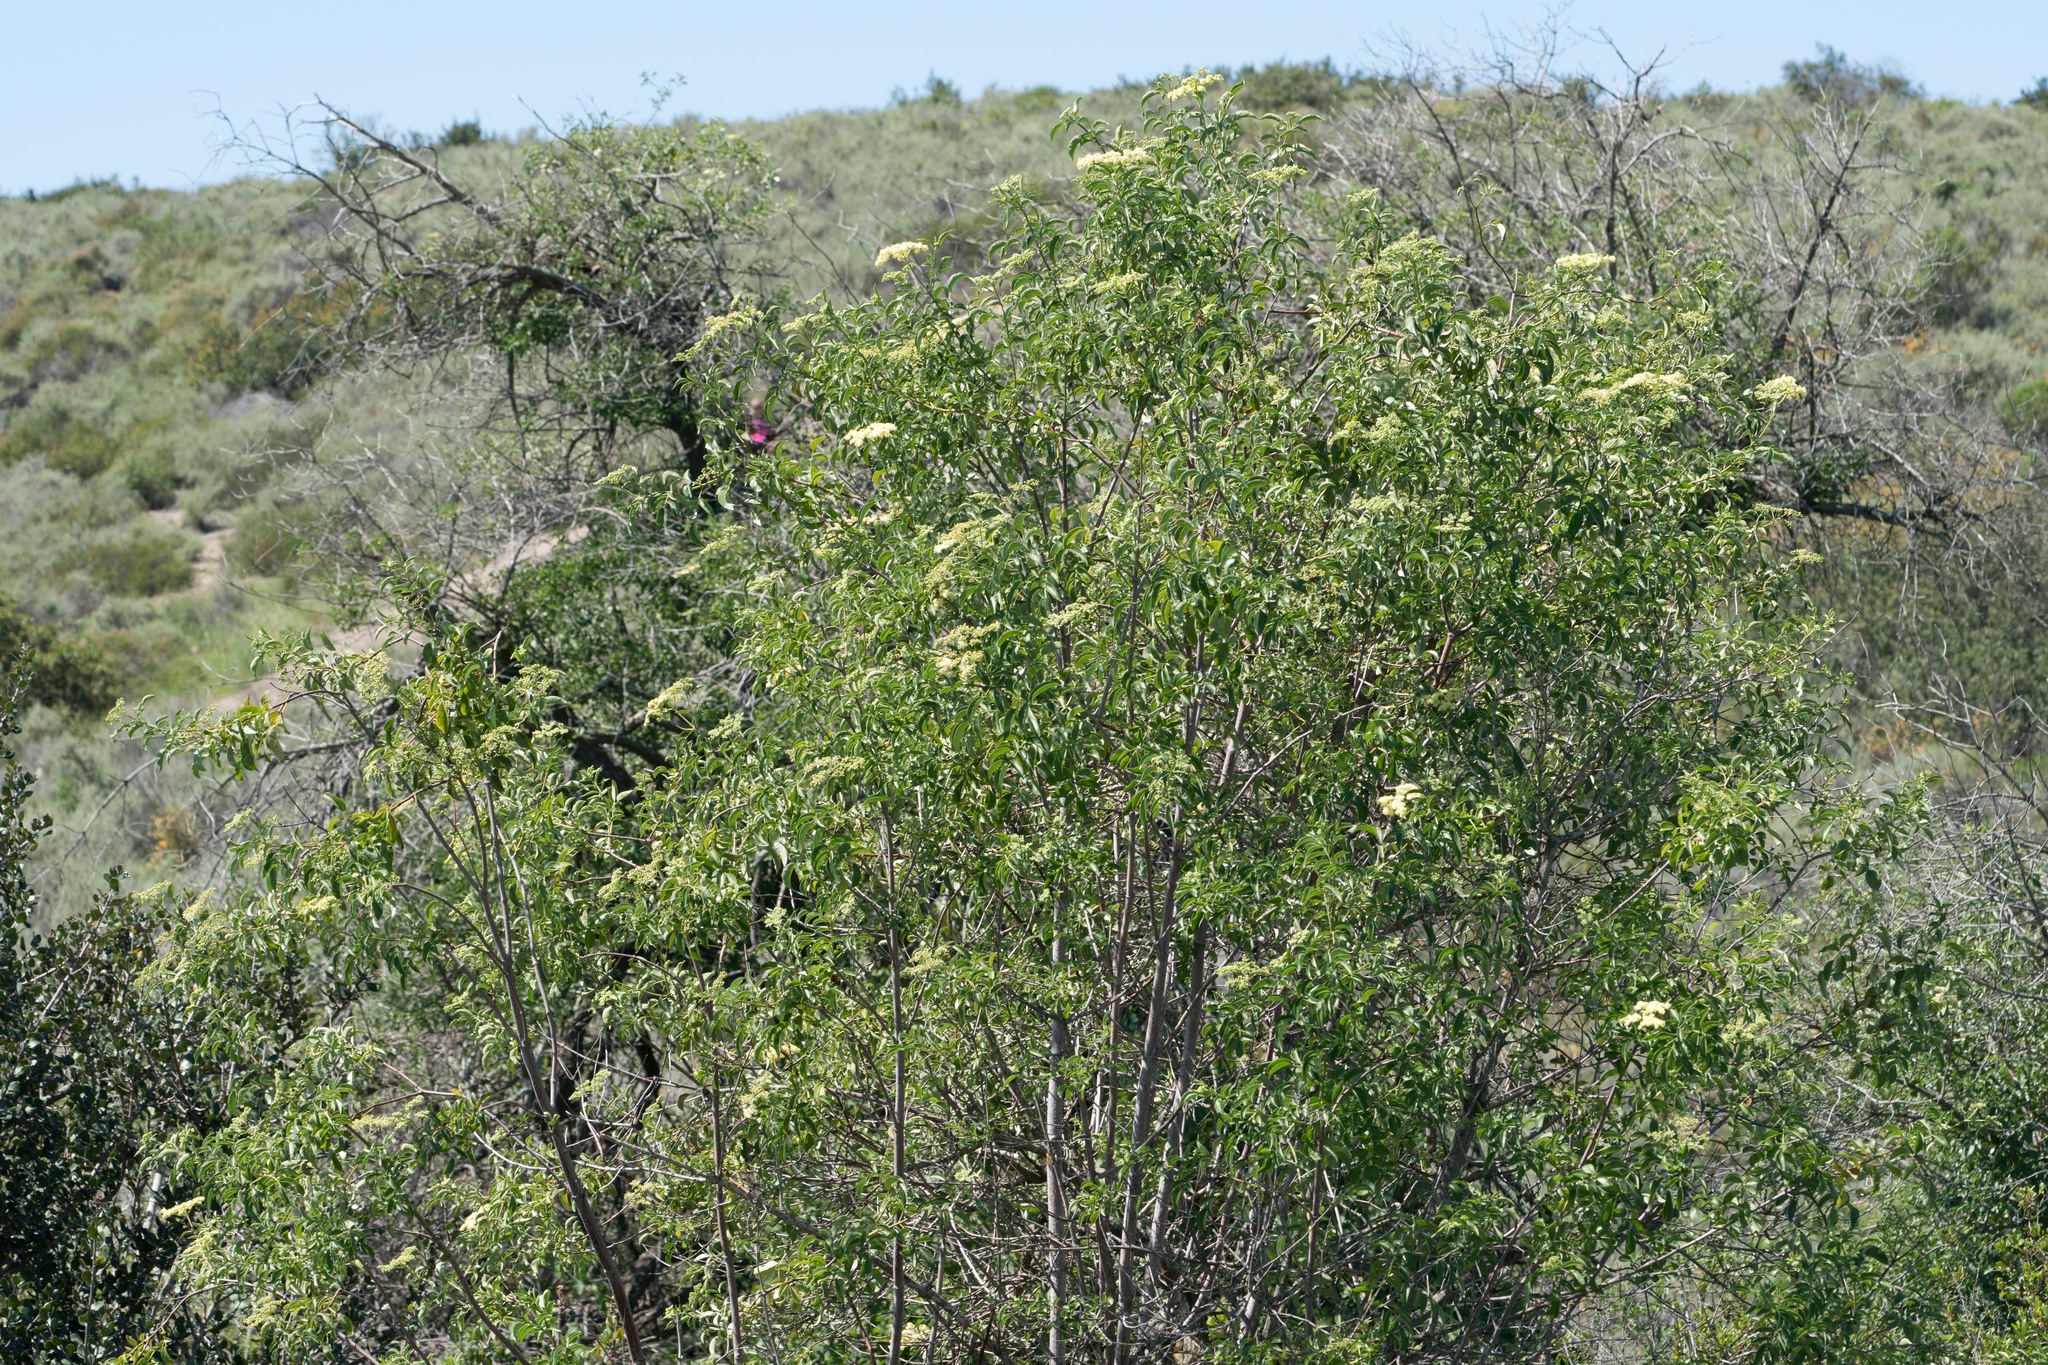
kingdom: Plantae
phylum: Tracheophyta
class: Magnoliopsida
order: Dipsacales
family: Viburnaceae
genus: Sambucus
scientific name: Sambucus cerulea
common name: Blue elder
